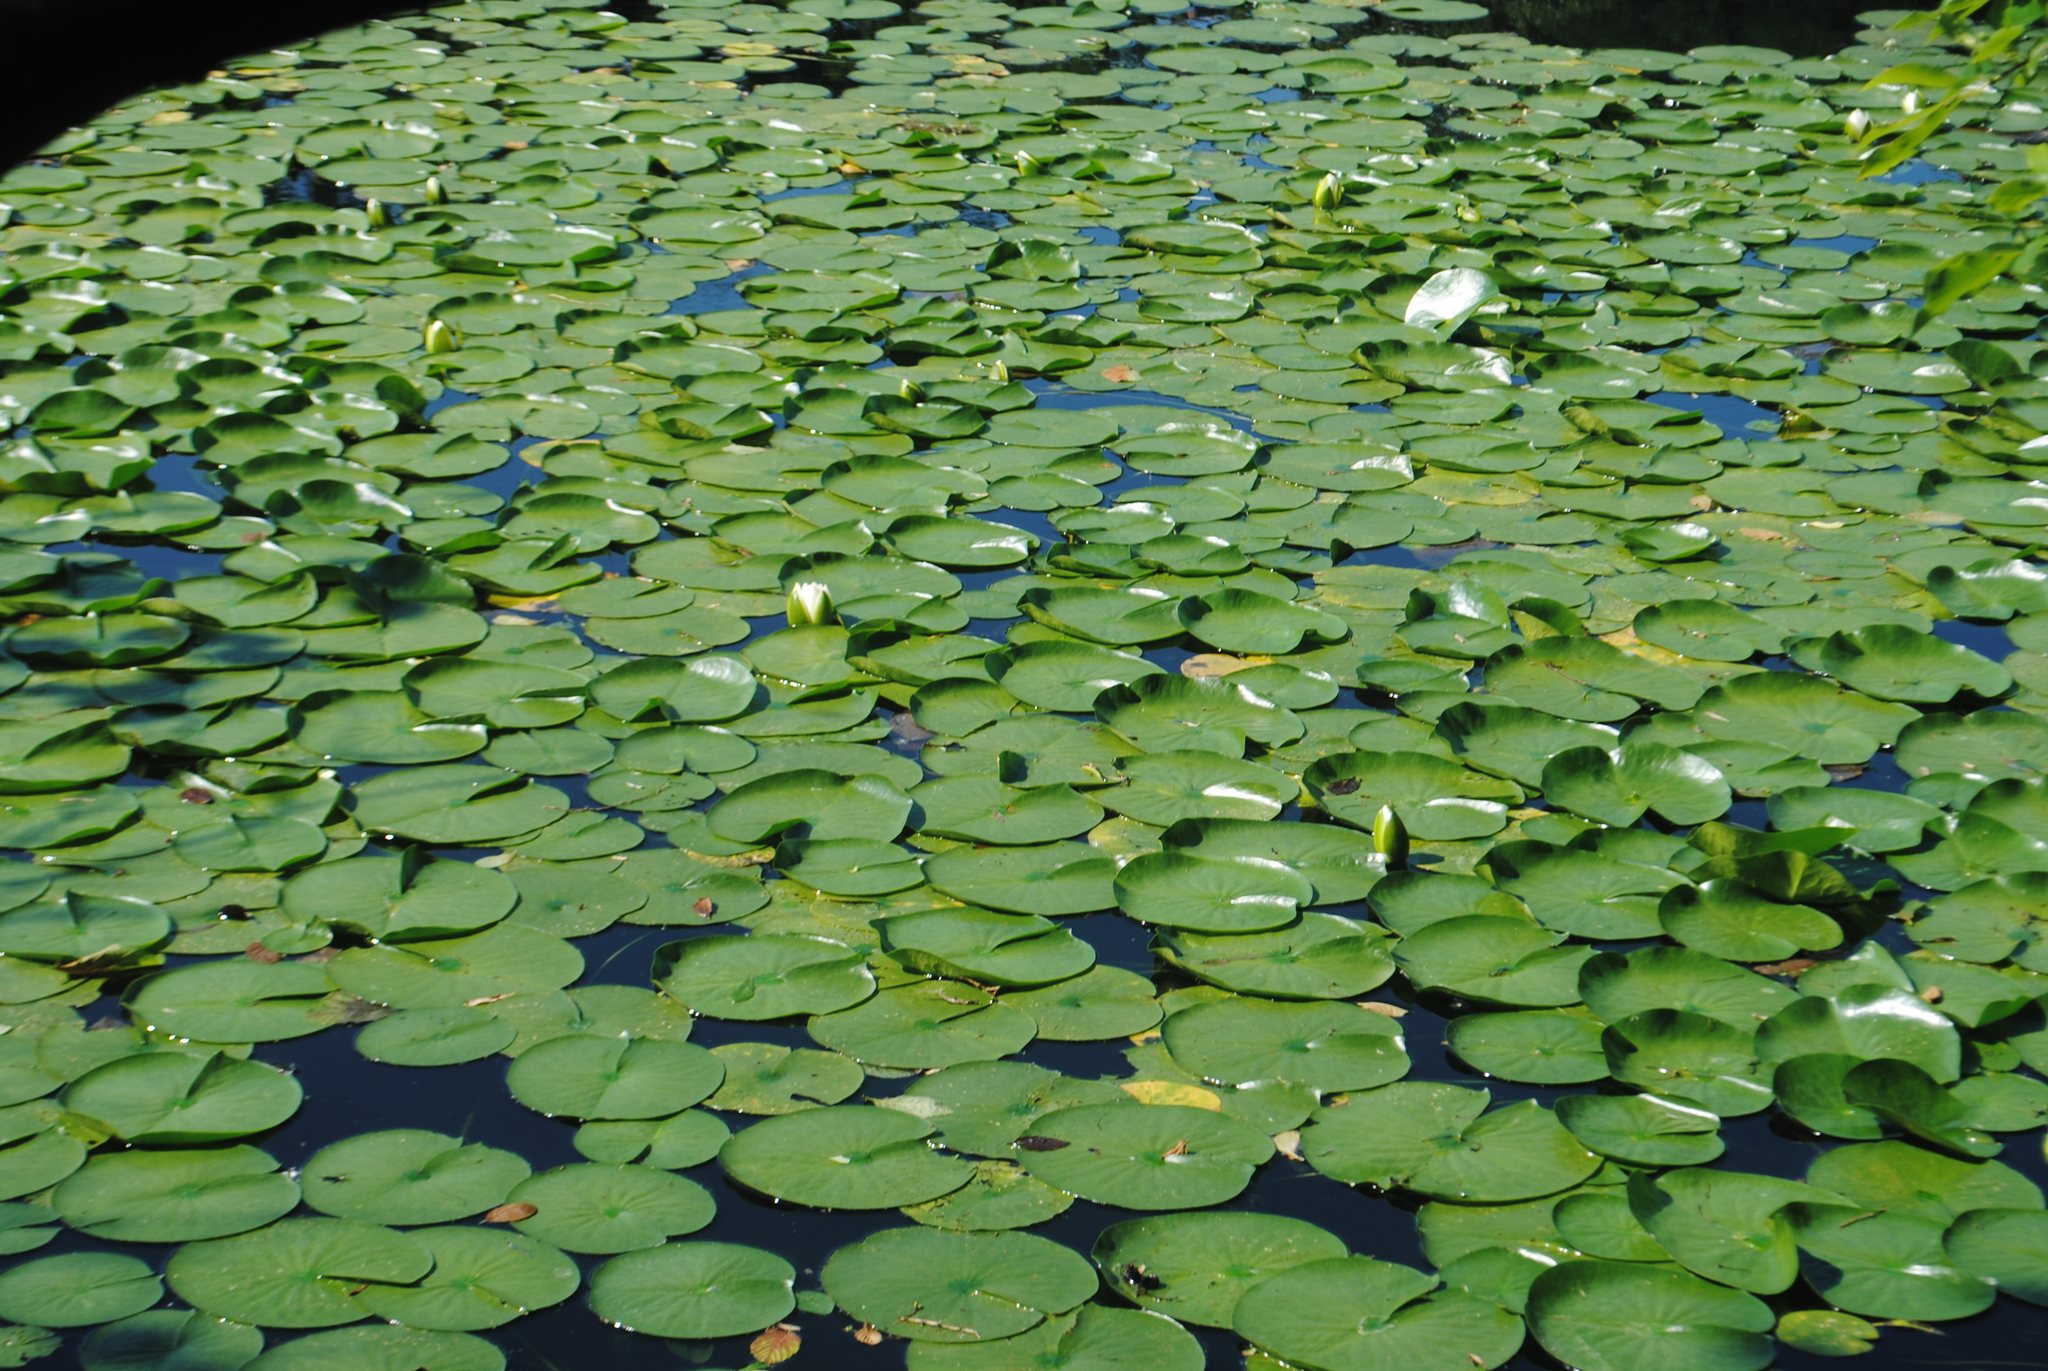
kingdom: Plantae
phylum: Tracheophyta
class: Magnoliopsida
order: Nymphaeales
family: Nymphaeaceae
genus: Nymphaea
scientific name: Nymphaea odorata
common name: Fragrant water-lily
